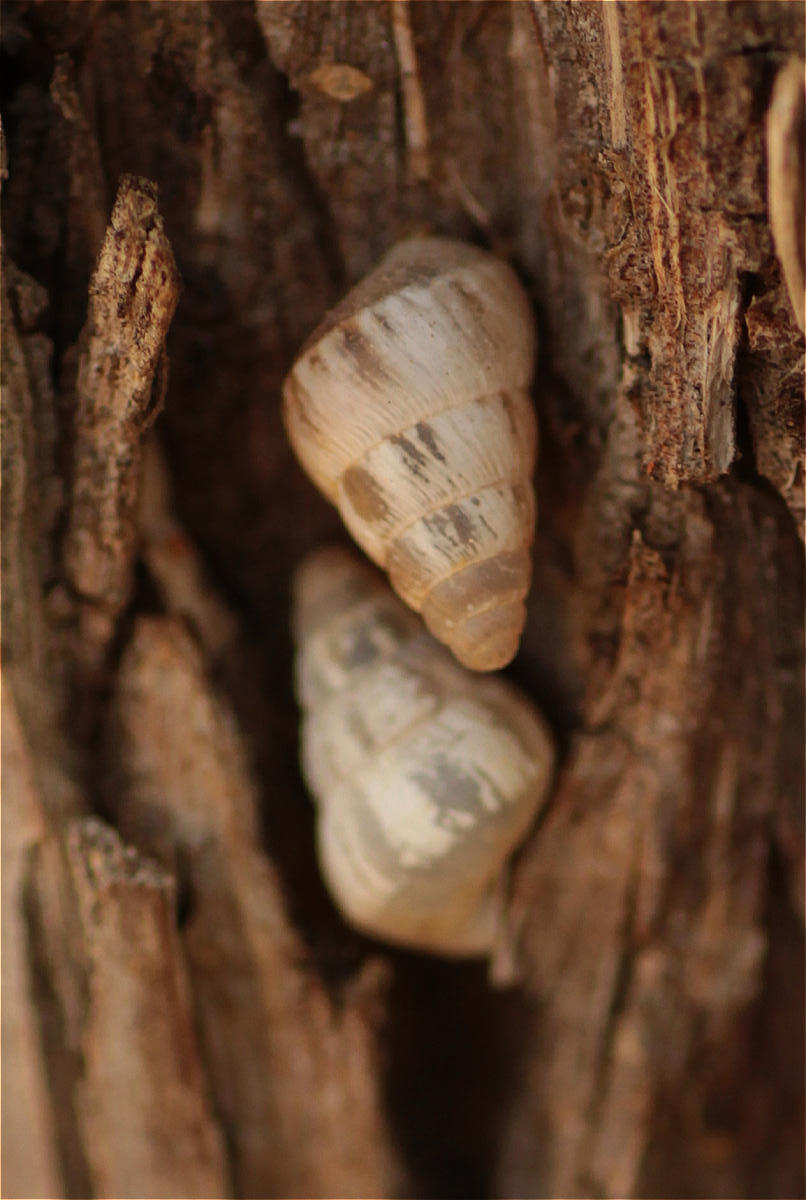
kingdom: Animalia
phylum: Mollusca
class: Gastropoda
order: Stylommatophora
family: Geomitridae
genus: Cochlicella
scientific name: Cochlicella barbara
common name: Potbellied helicellid
